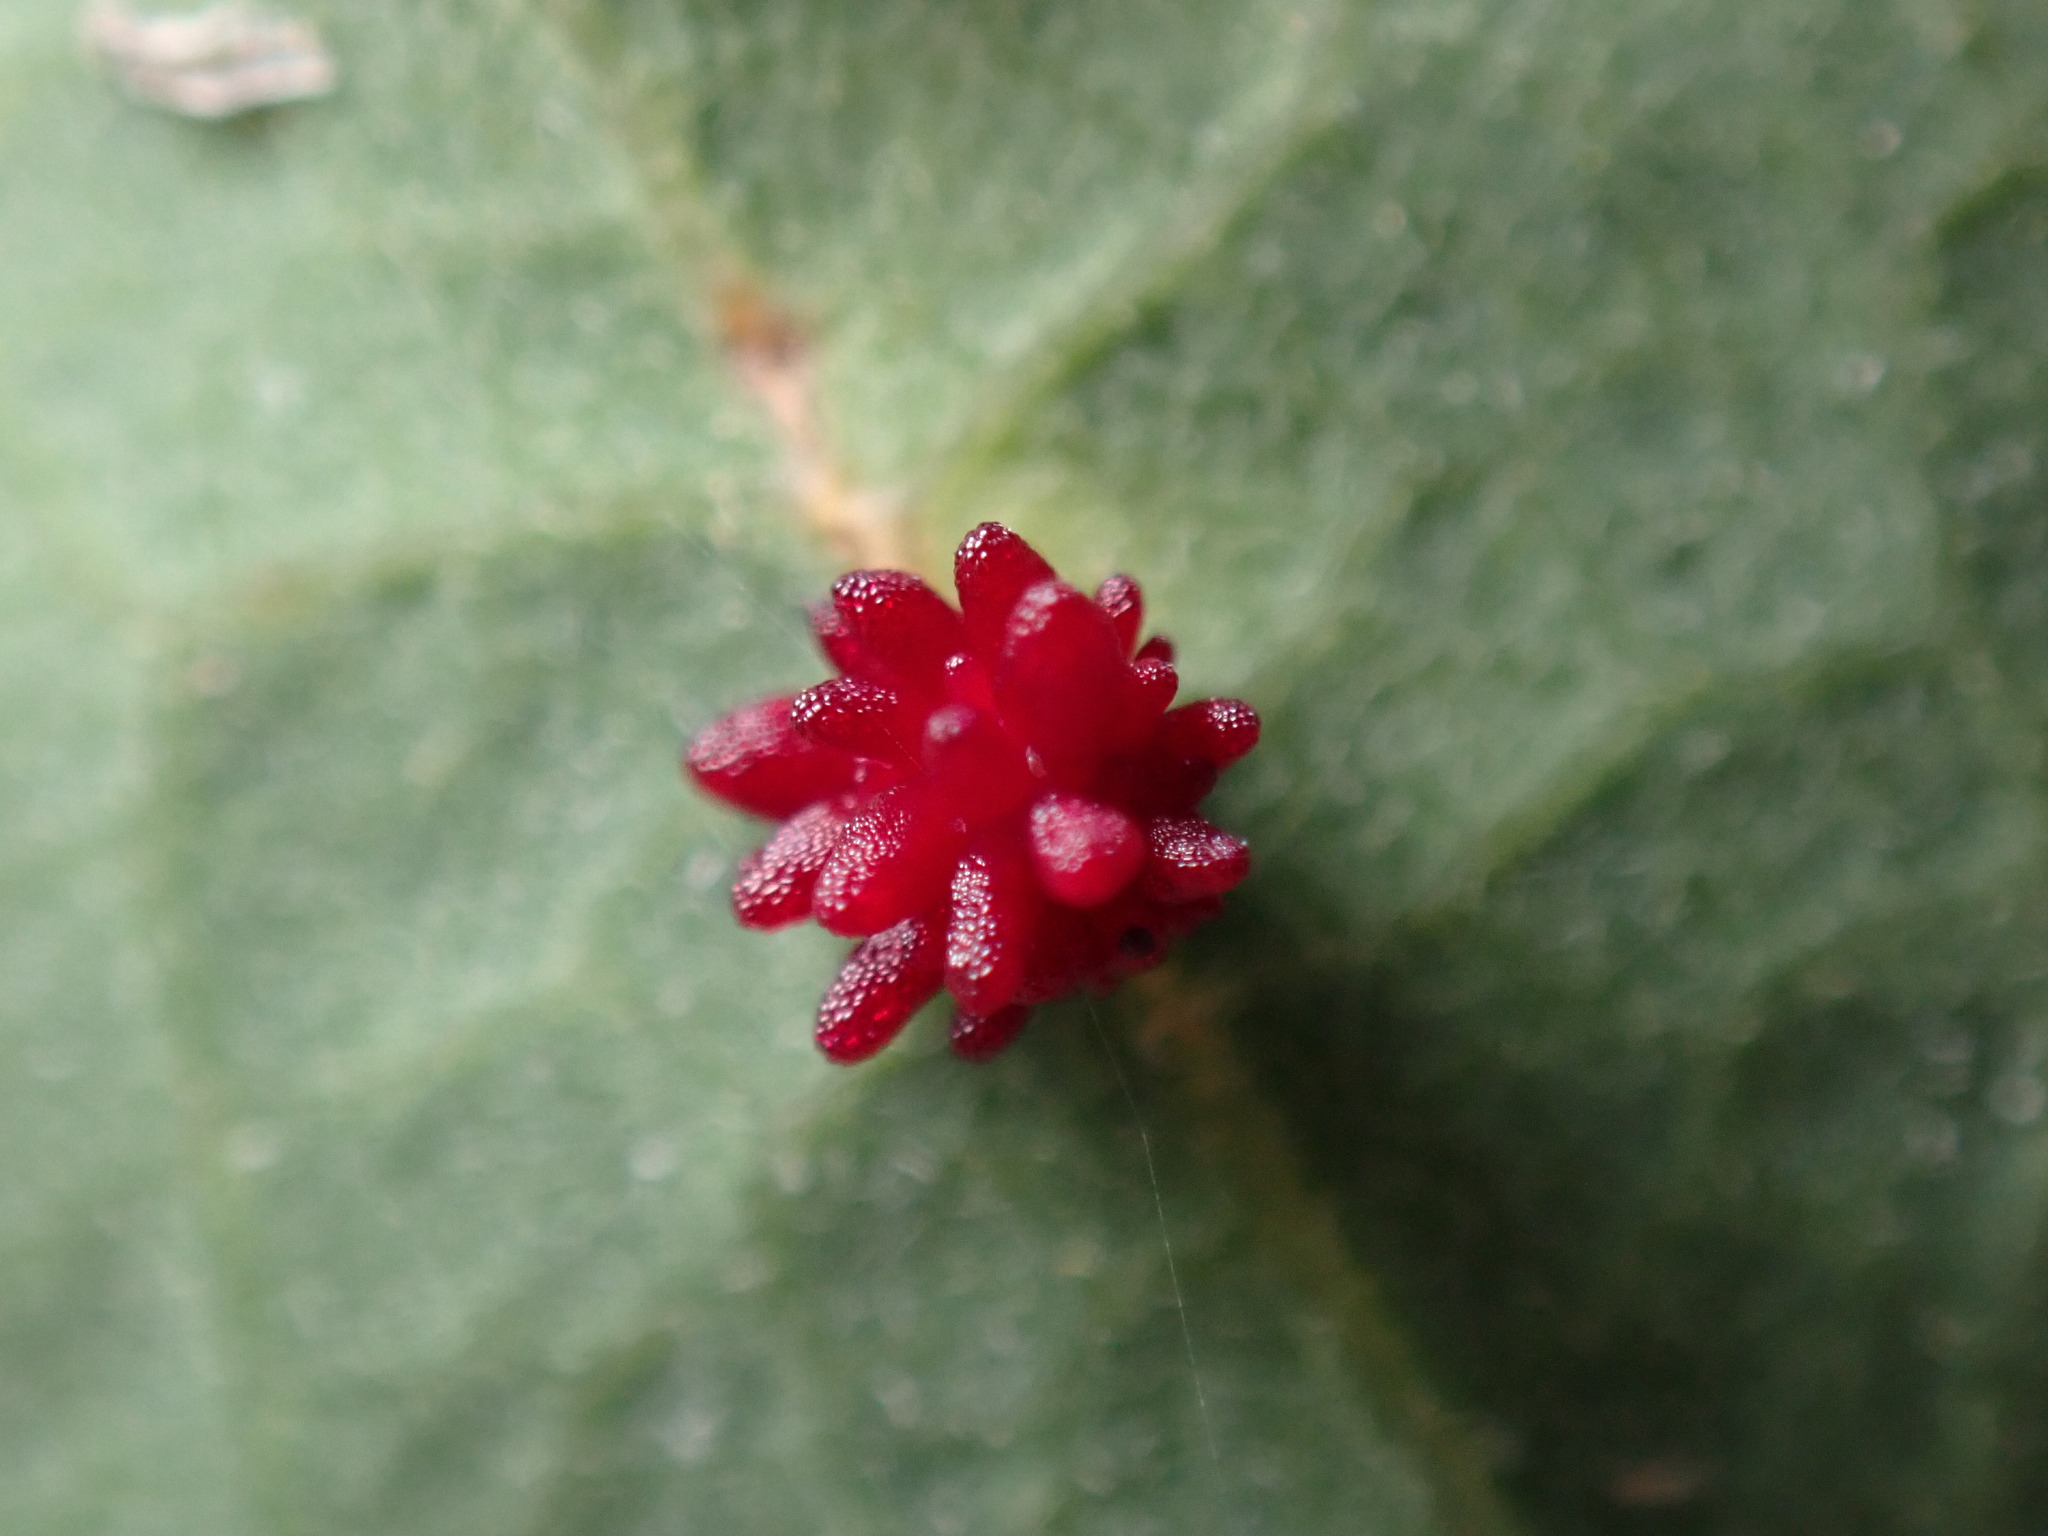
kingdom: Animalia
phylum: Arthropoda
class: Insecta
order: Hymenoptera
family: Cynipidae
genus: Cynips
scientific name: Cynips
